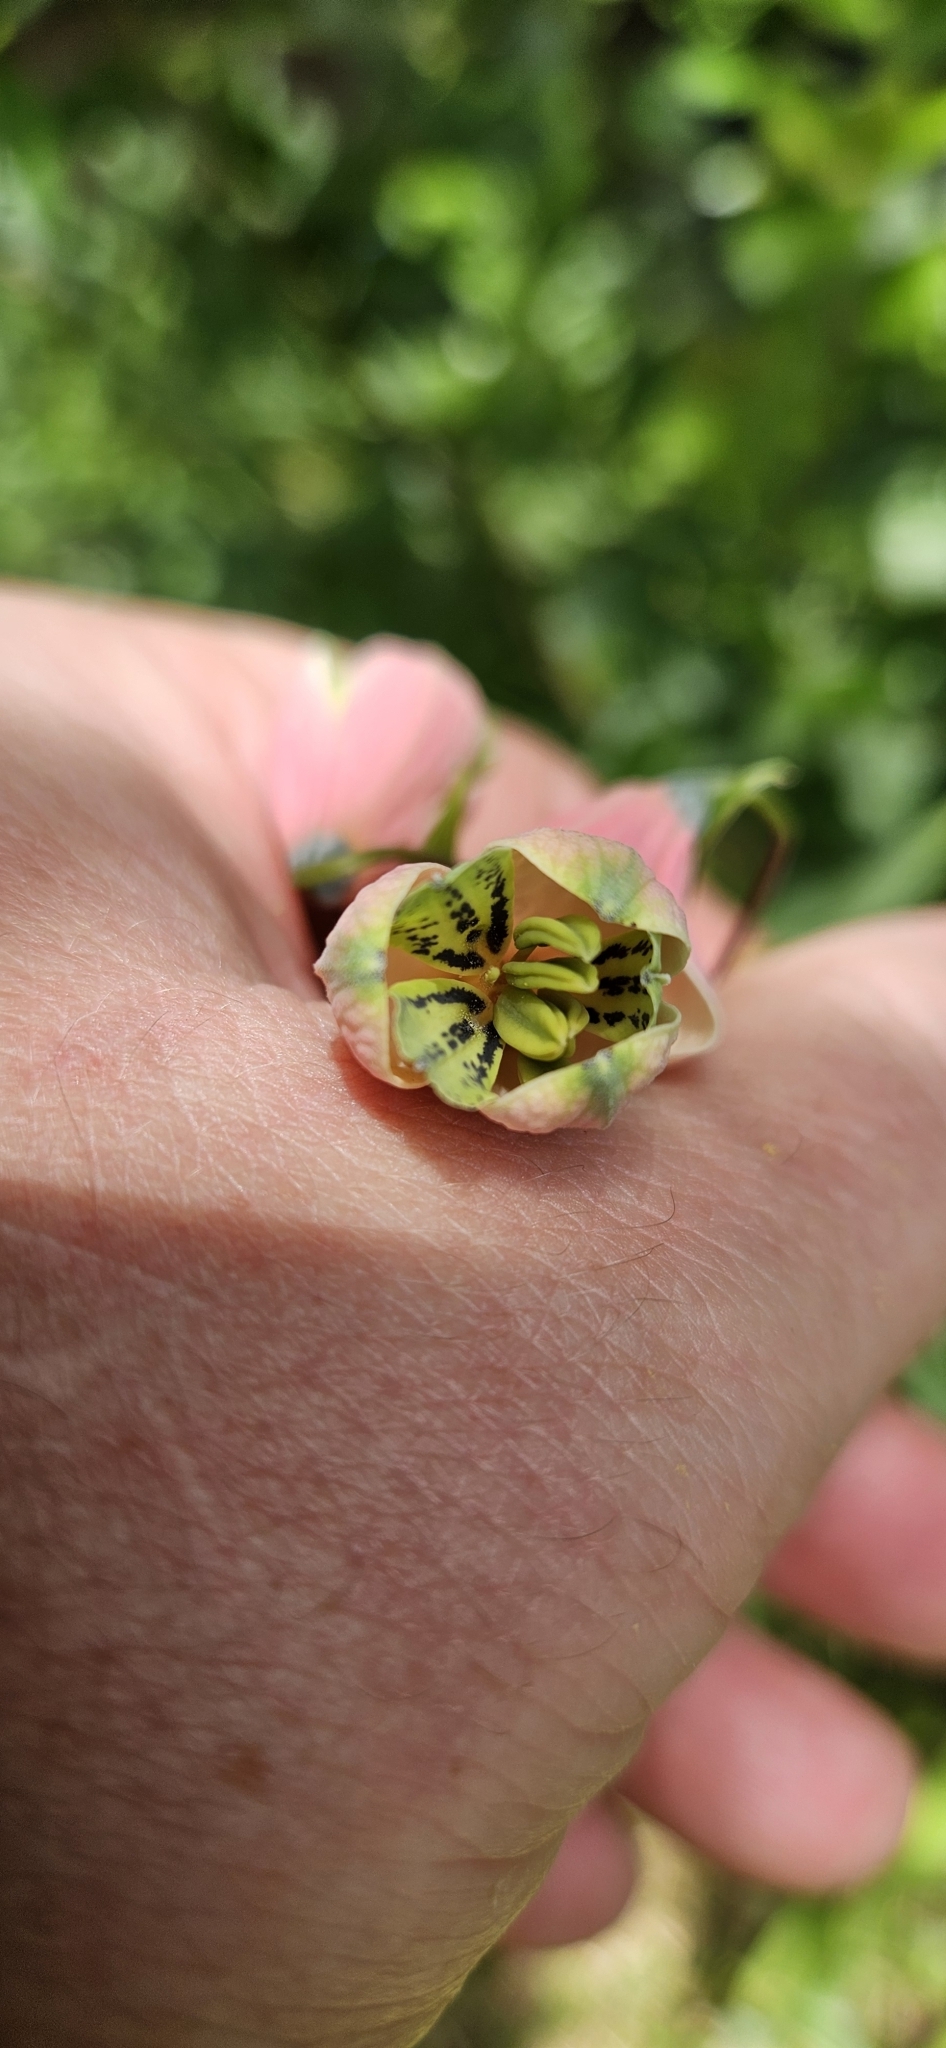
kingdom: Plantae
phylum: Tracheophyta
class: Liliopsida
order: Liliales
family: Alstroemeriaceae
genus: Bomarea
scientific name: Bomarea edulis
